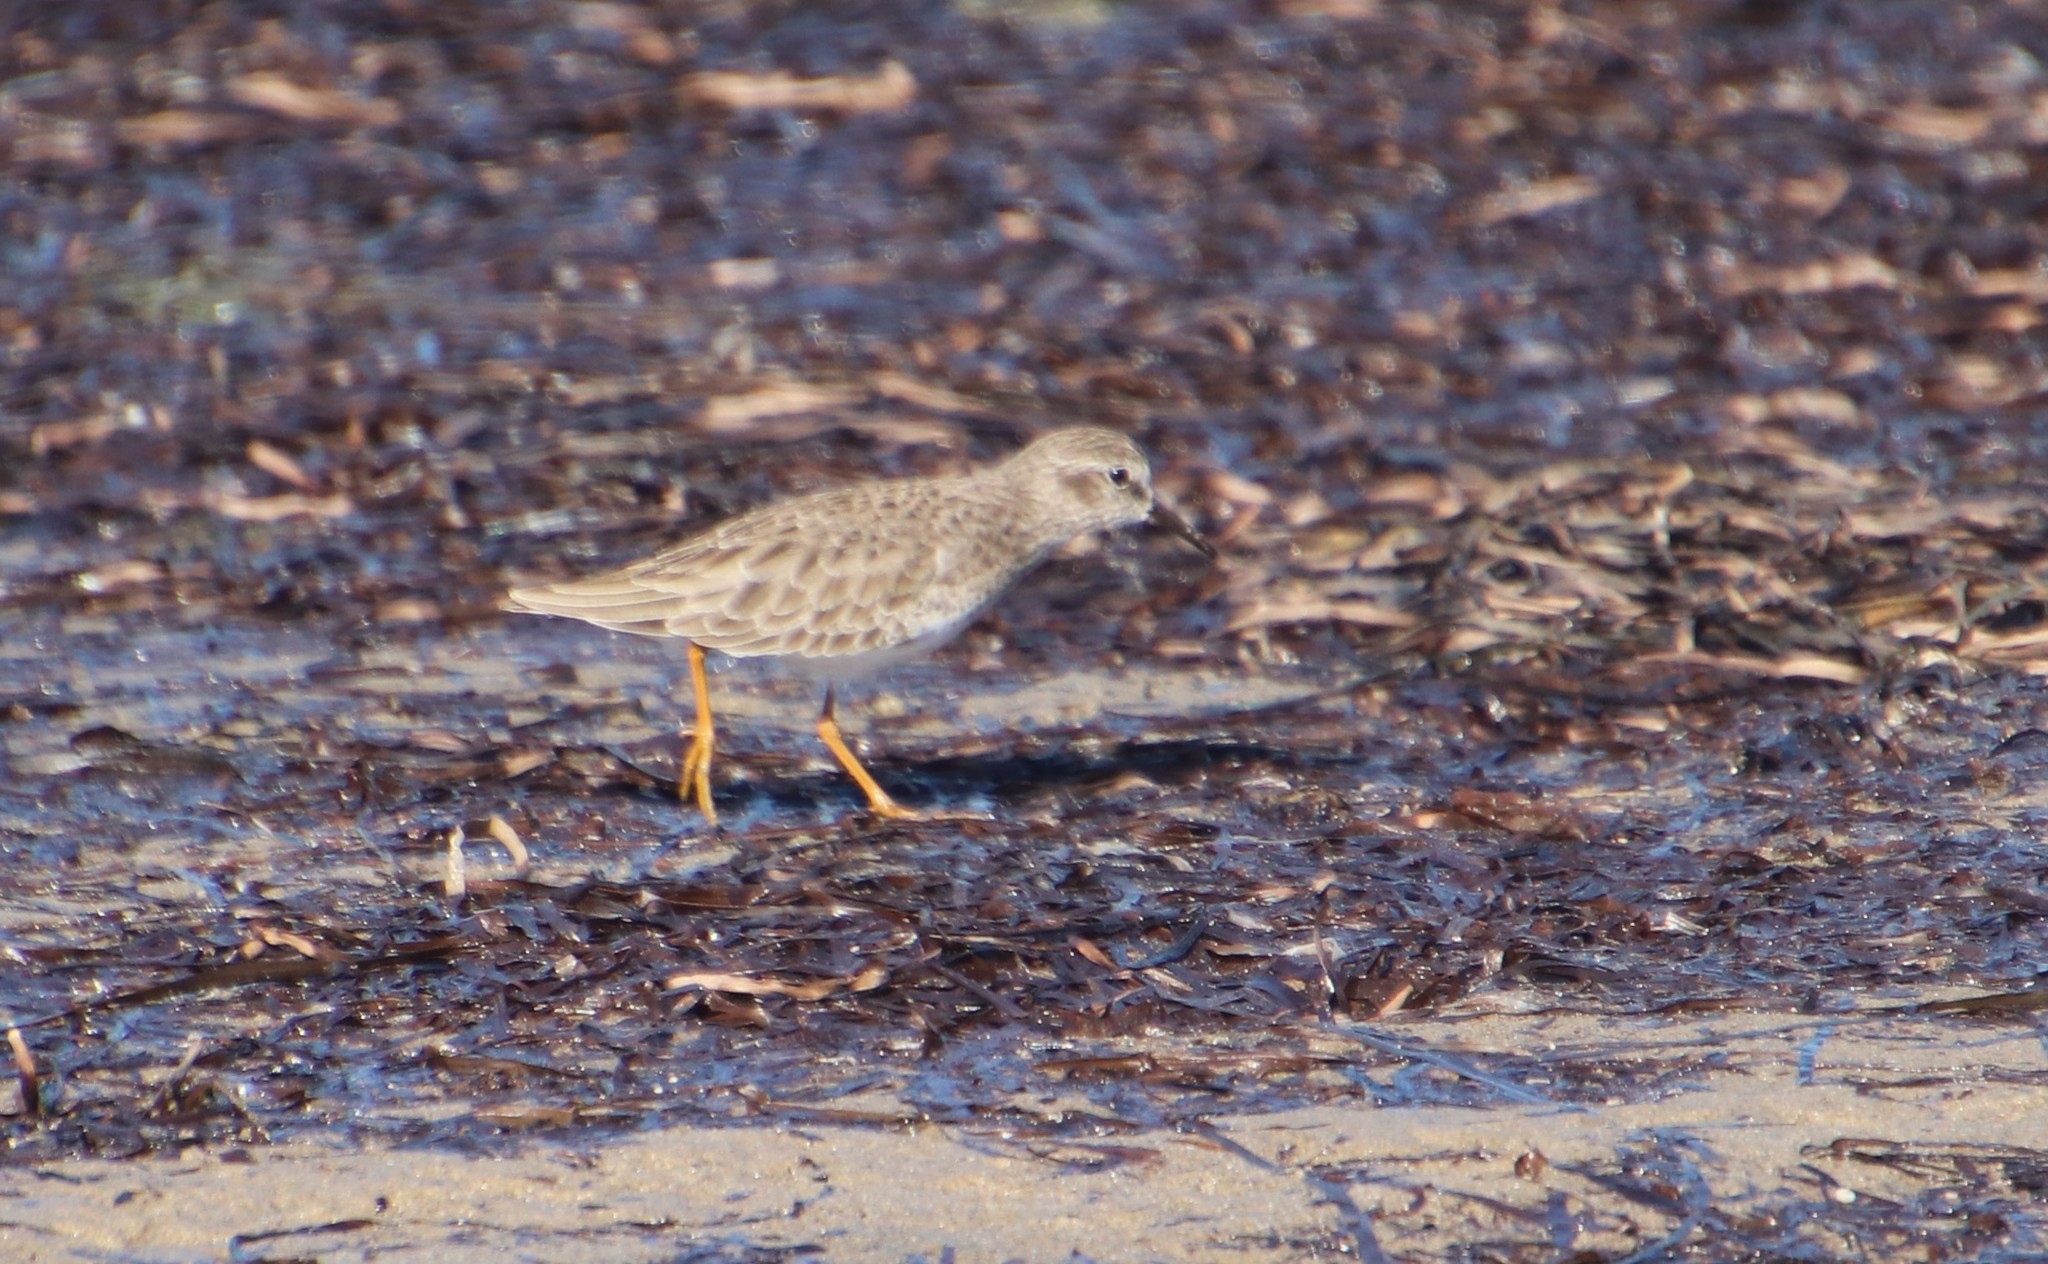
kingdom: Animalia
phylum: Chordata
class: Aves
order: Charadriiformes
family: Scolopacidae
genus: Calidris
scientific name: Calidris minutilla
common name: Least sandpiper
